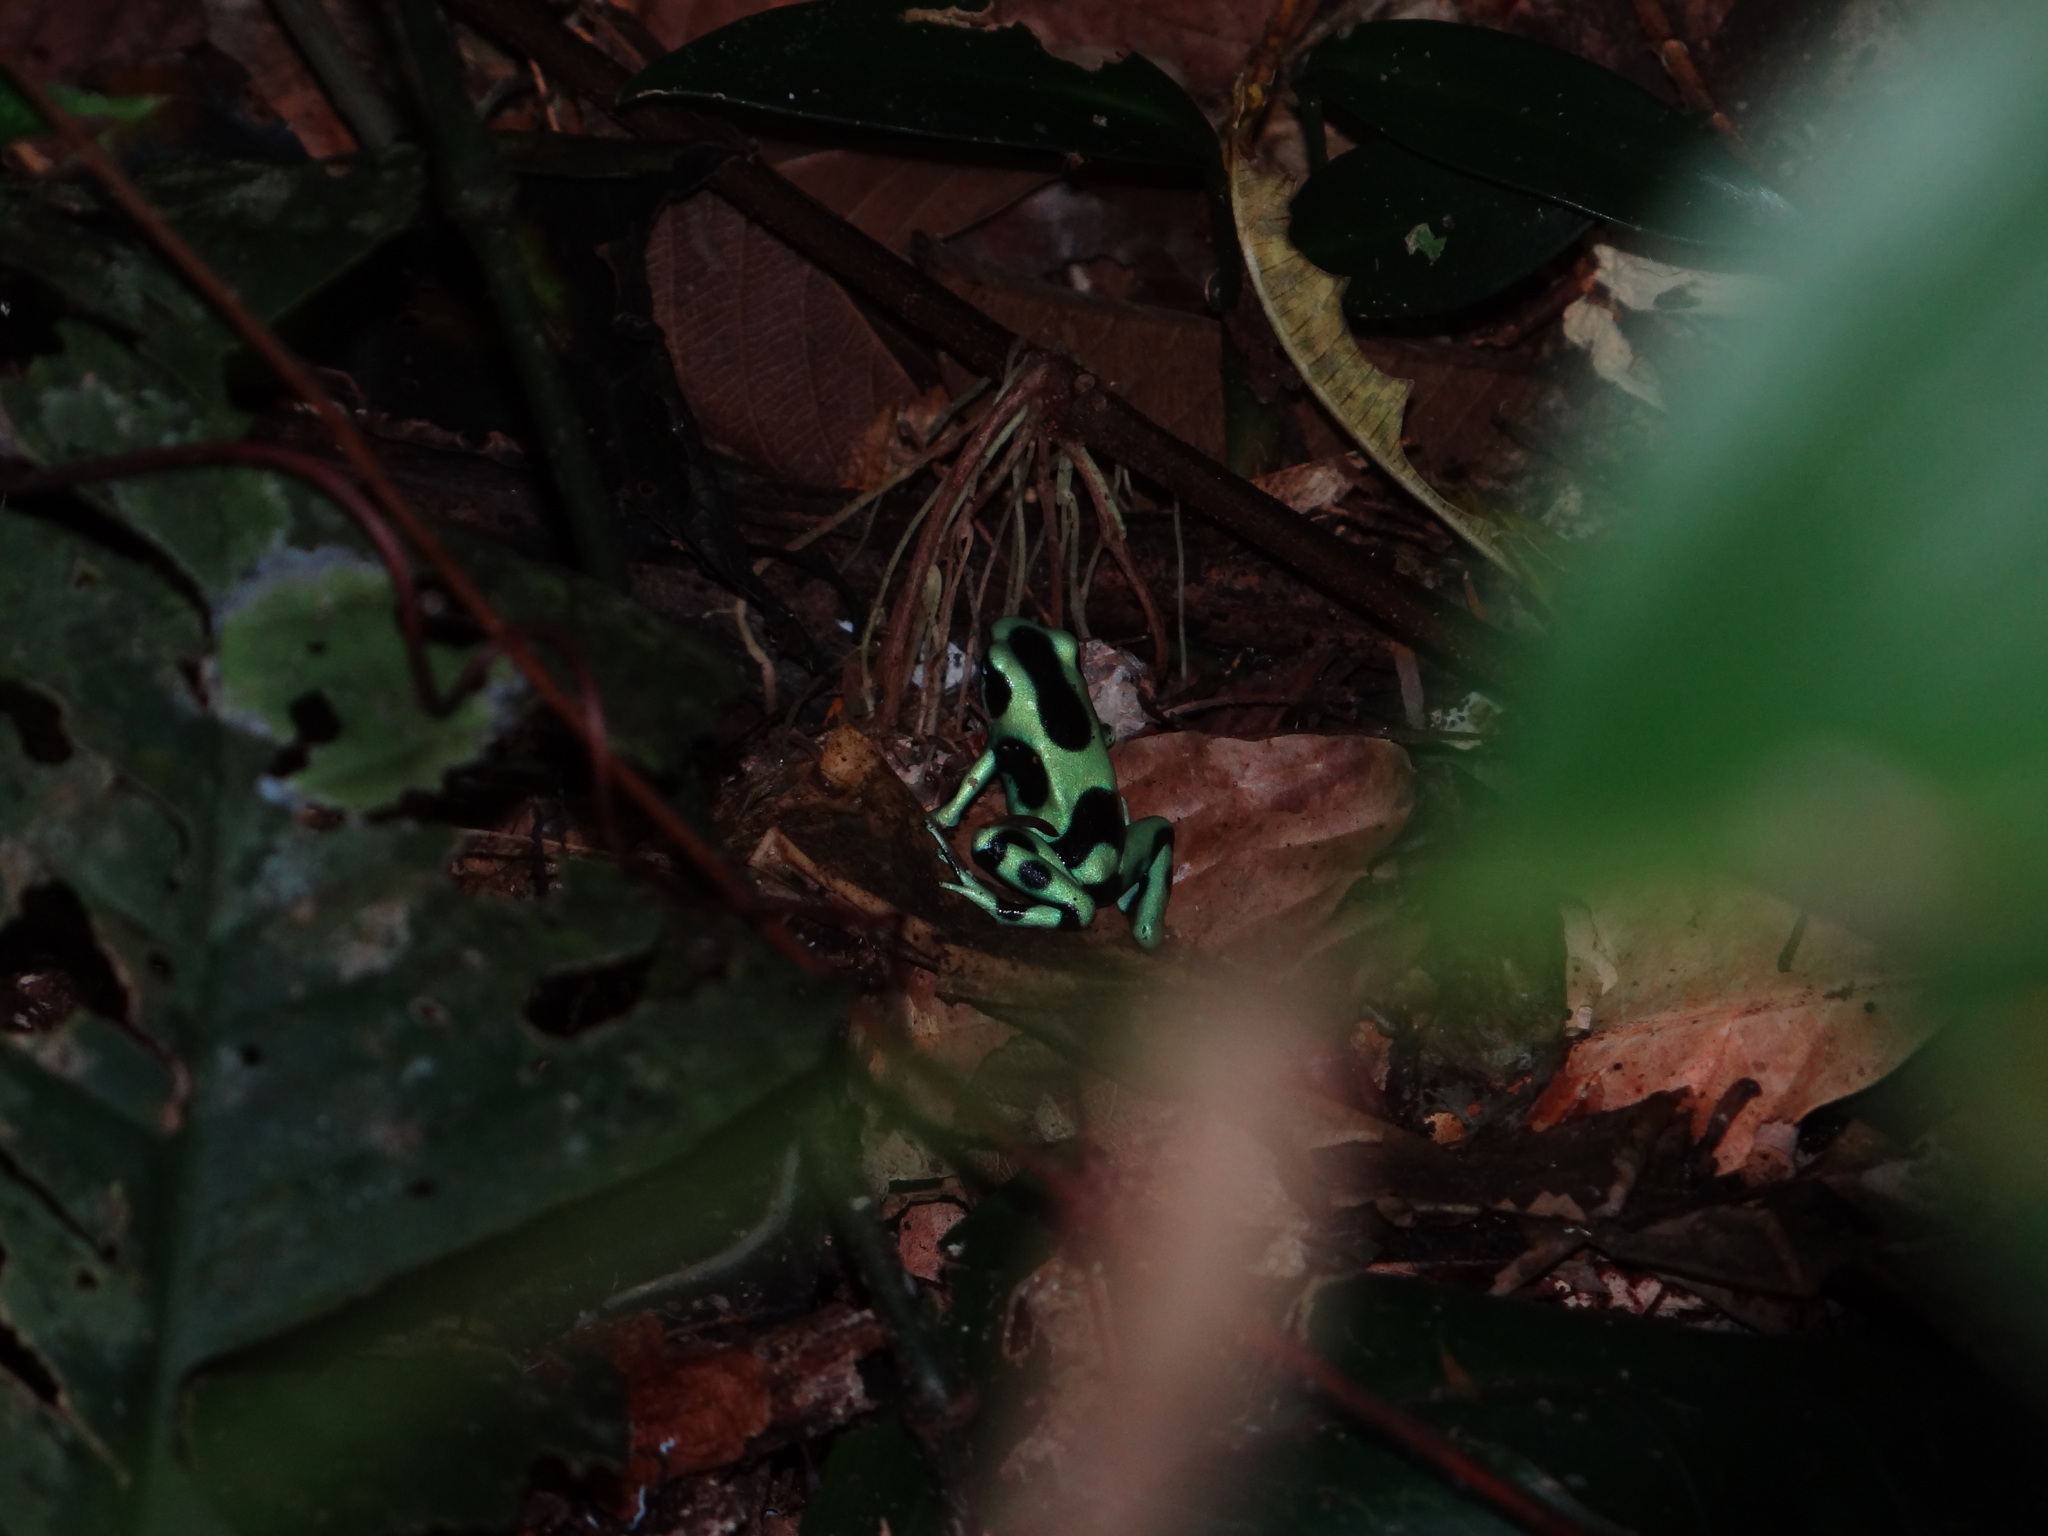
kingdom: Animalia
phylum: Chordata
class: Amphibia
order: Anura
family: Dendrobatidae
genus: Dendrobates
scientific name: Dendrobates auratus
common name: Green and black poison dart frog
